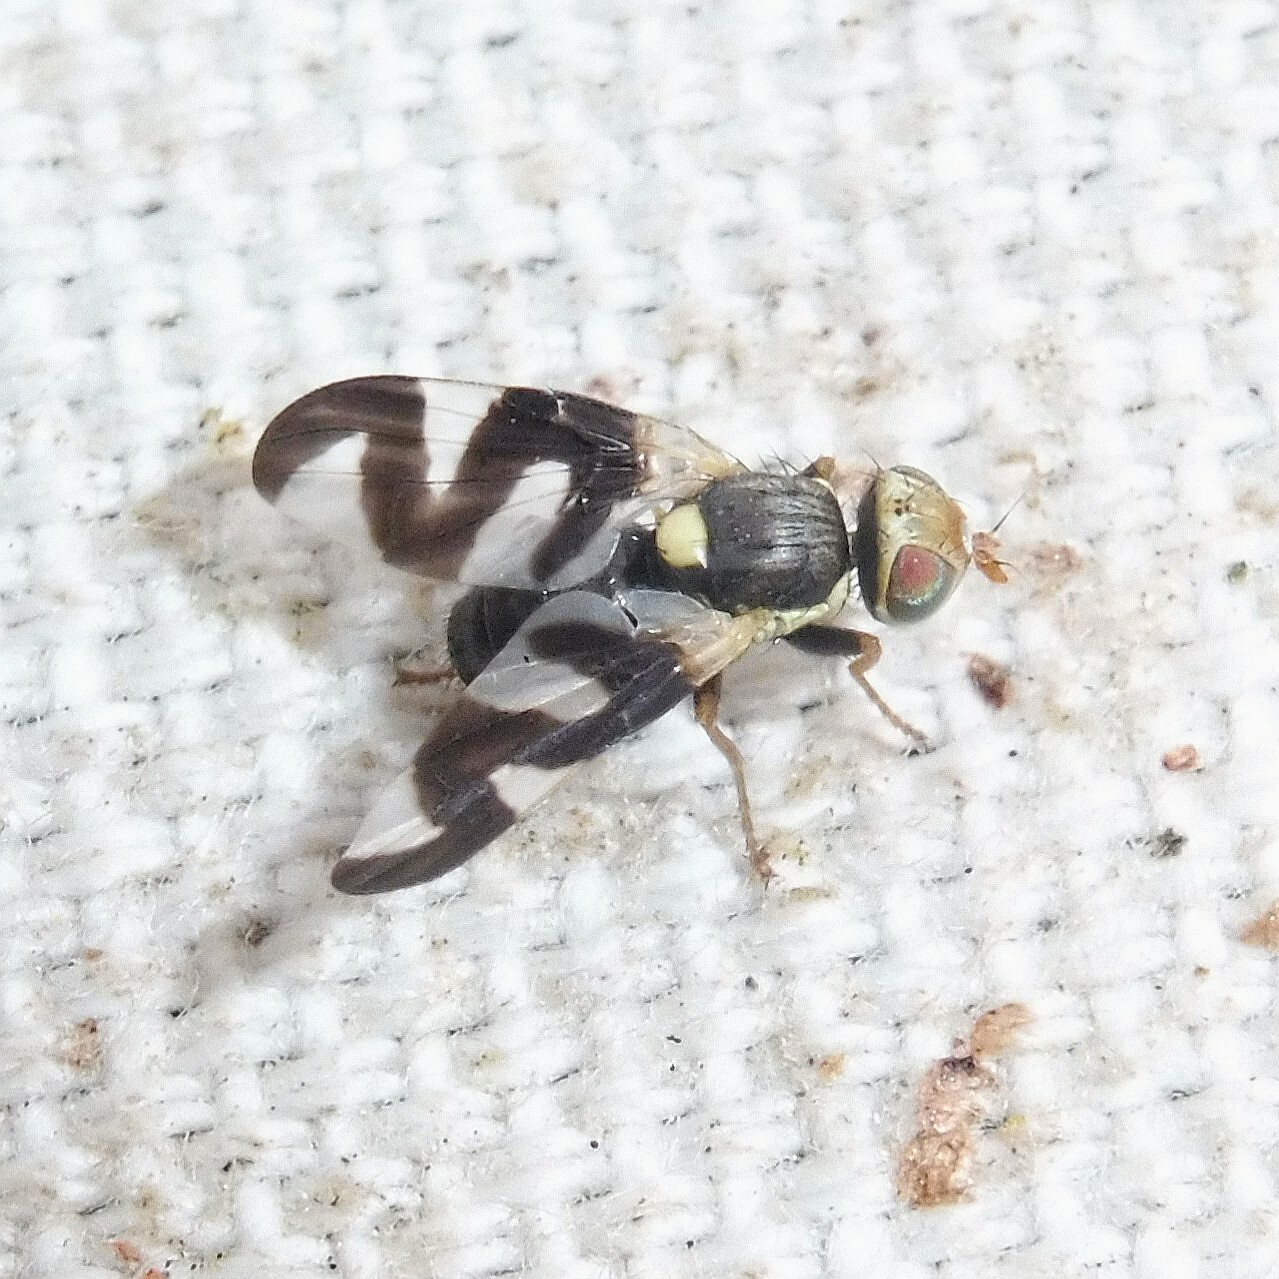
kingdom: Animalia
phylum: Arthropoda
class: Insecta
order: Diptera
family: Tephritidae
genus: Urophora
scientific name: Urophora cardui
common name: Fruit fly
